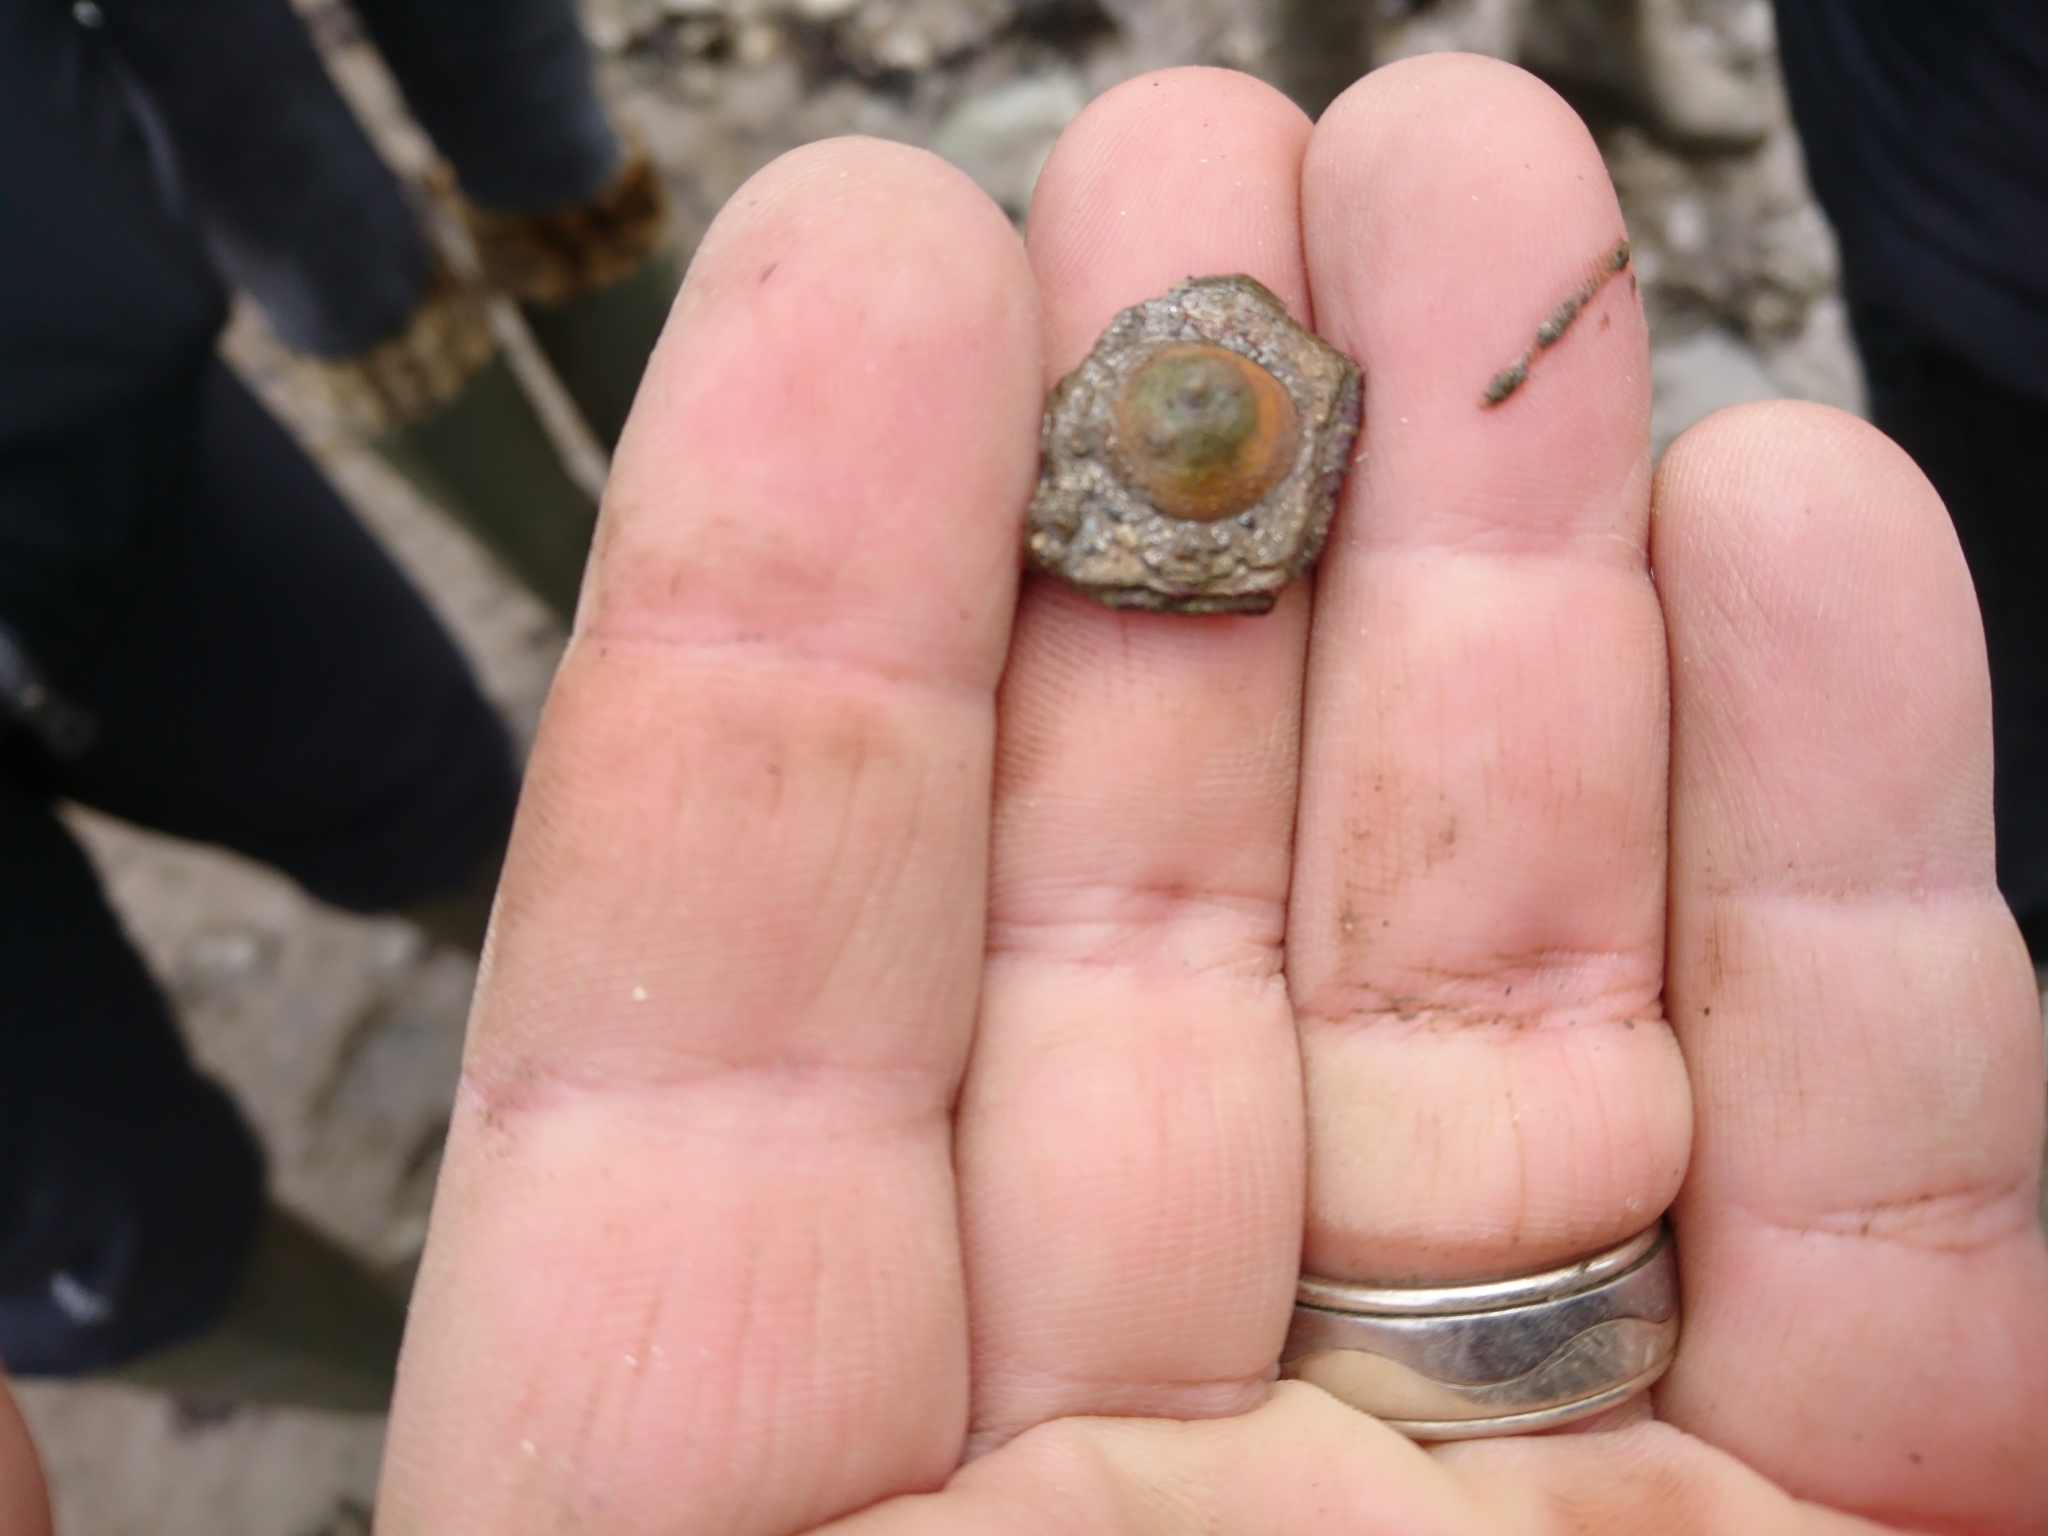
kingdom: Animalia
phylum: Mollusca
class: Gastropoda
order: Littorinimorpha
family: Calyptraeidae
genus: Calyptraea
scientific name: Calyptraea chinensis
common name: Chinaman's hat
